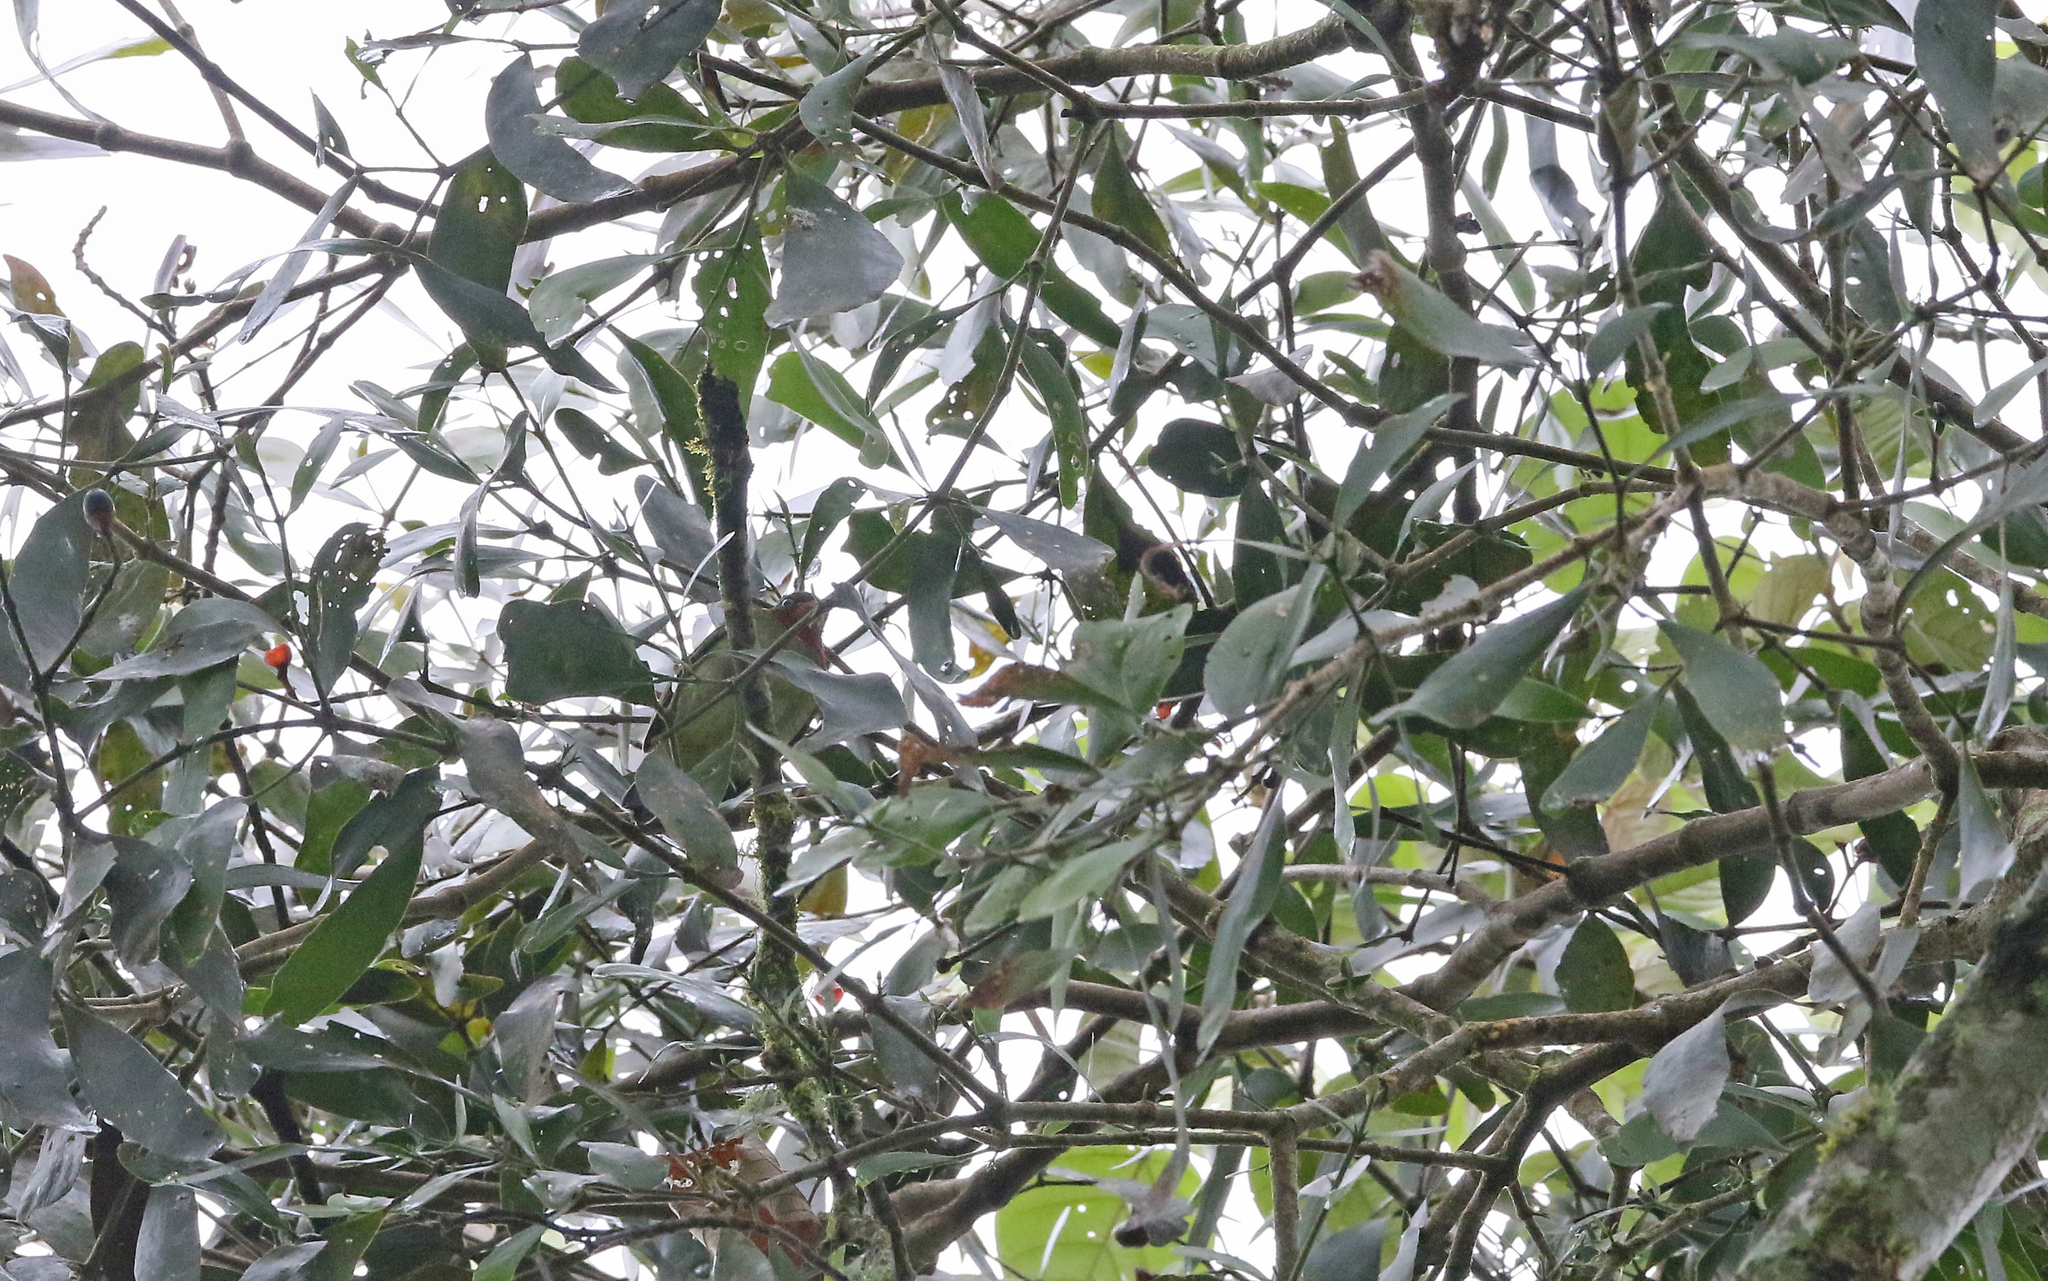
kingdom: Animalia
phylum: Chordata
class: Aves
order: Passeriformes
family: Cotingidae
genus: Pipreola
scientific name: Pipreola chlorolepidota
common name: Fiery-throated fruiteater
